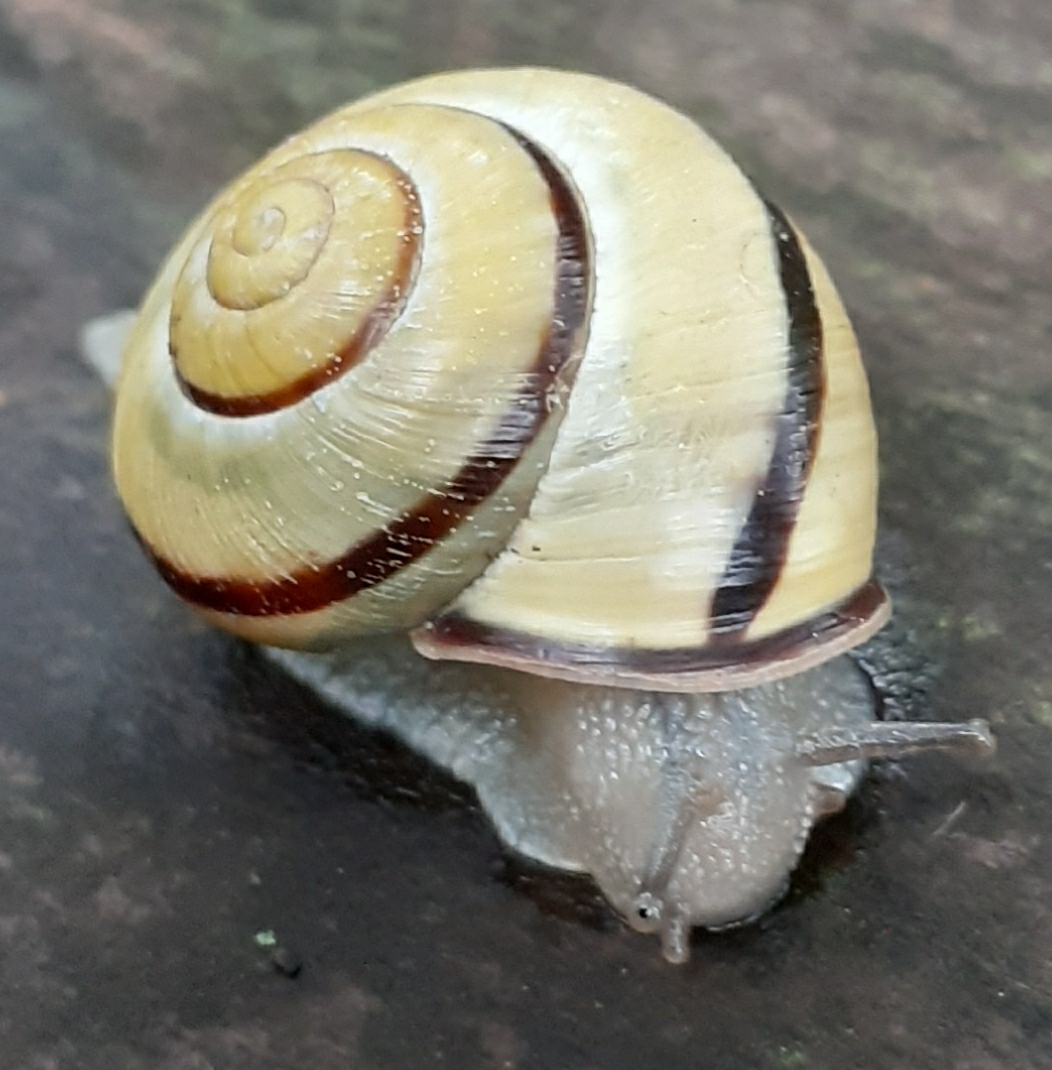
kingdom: Animalia
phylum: Mollusca
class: Gastropoda
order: Stylommatophora
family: Helicidae
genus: Cepaea
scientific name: Cepaea nemoralis
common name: Grovesnail
